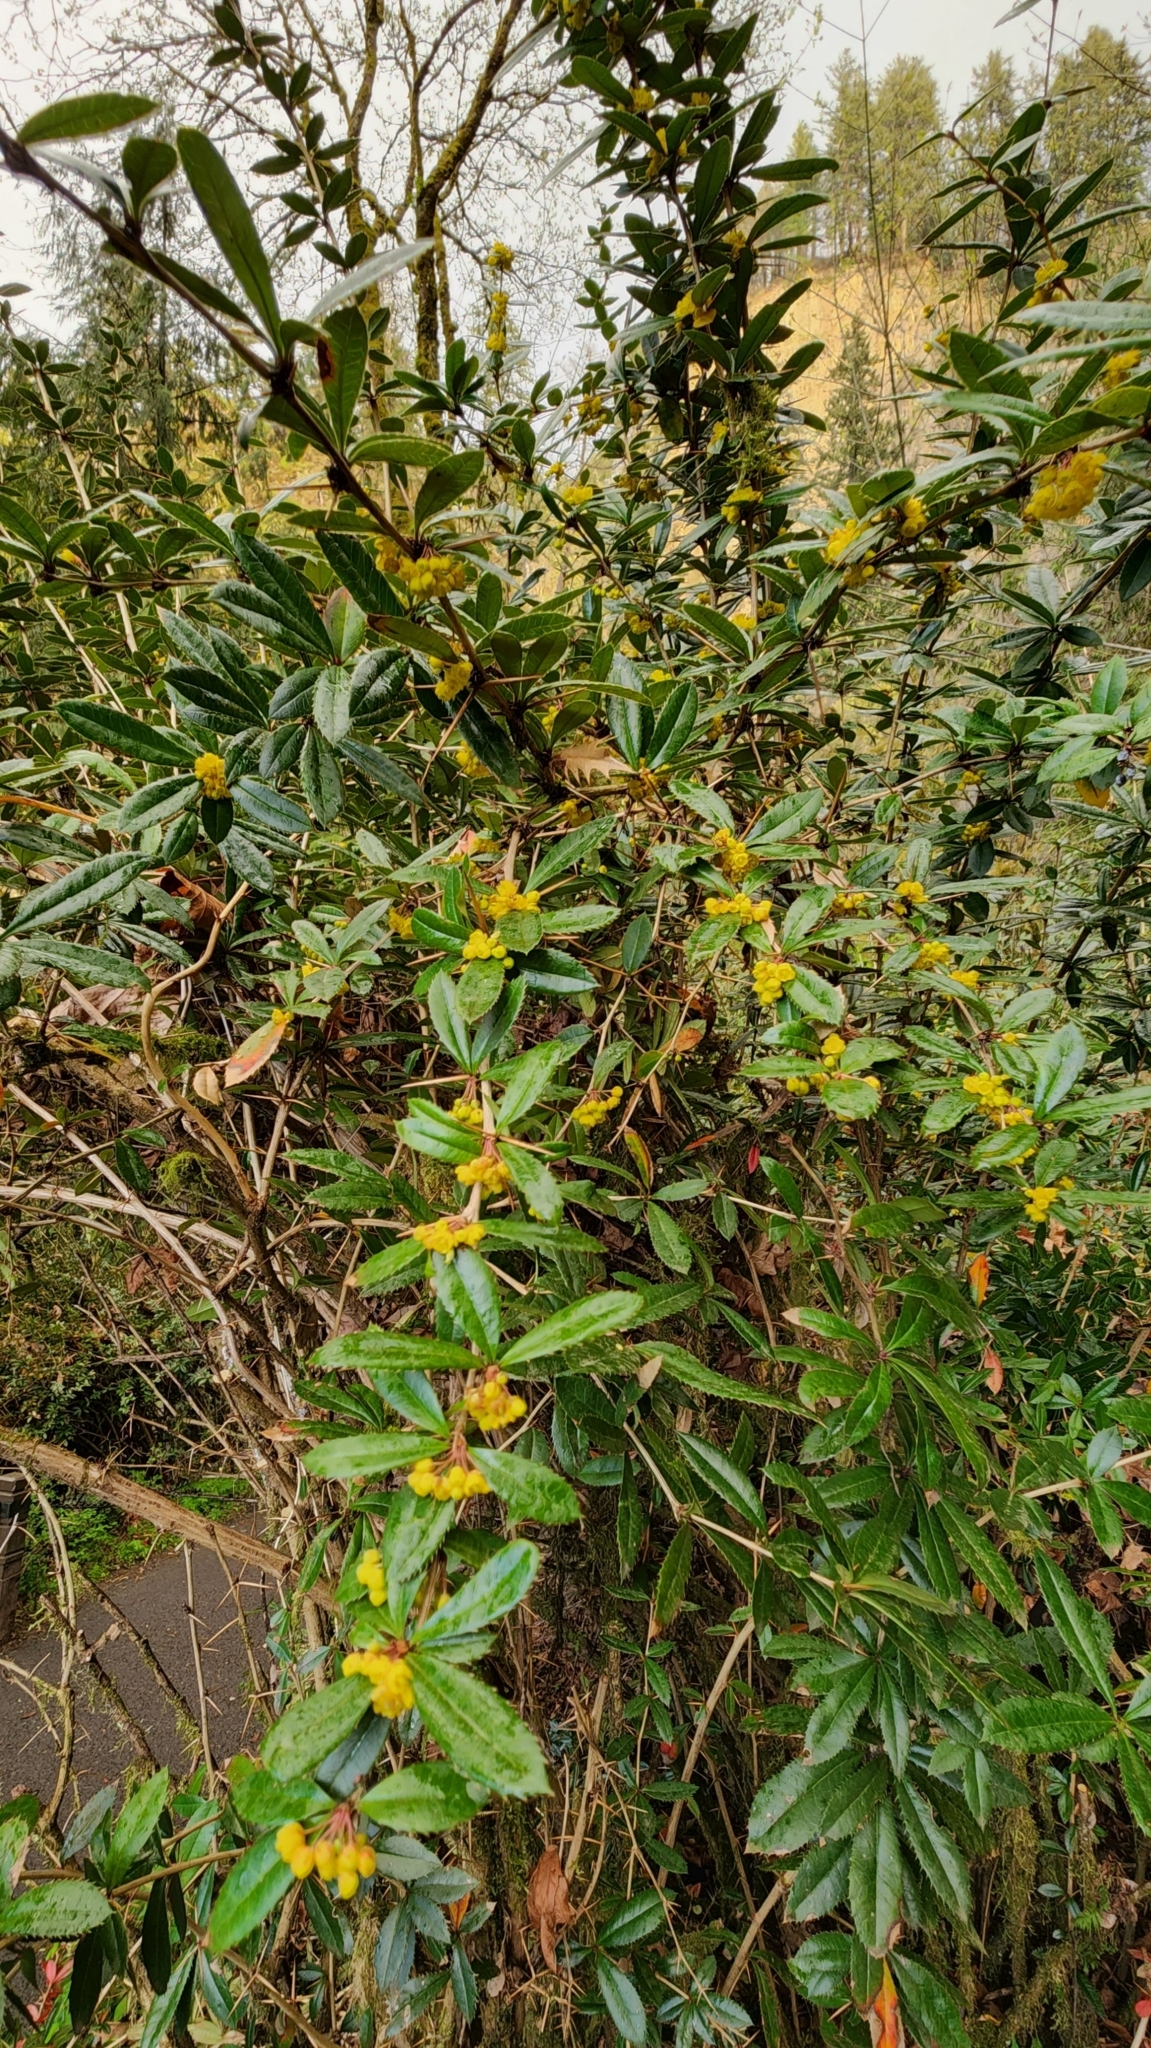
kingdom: Plantae
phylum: Tracheophyta
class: Magnoliopsida
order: Ranunculales
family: Berberidaceae
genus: Berberis
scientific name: Berberis julianae
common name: Wintergreen barberry
